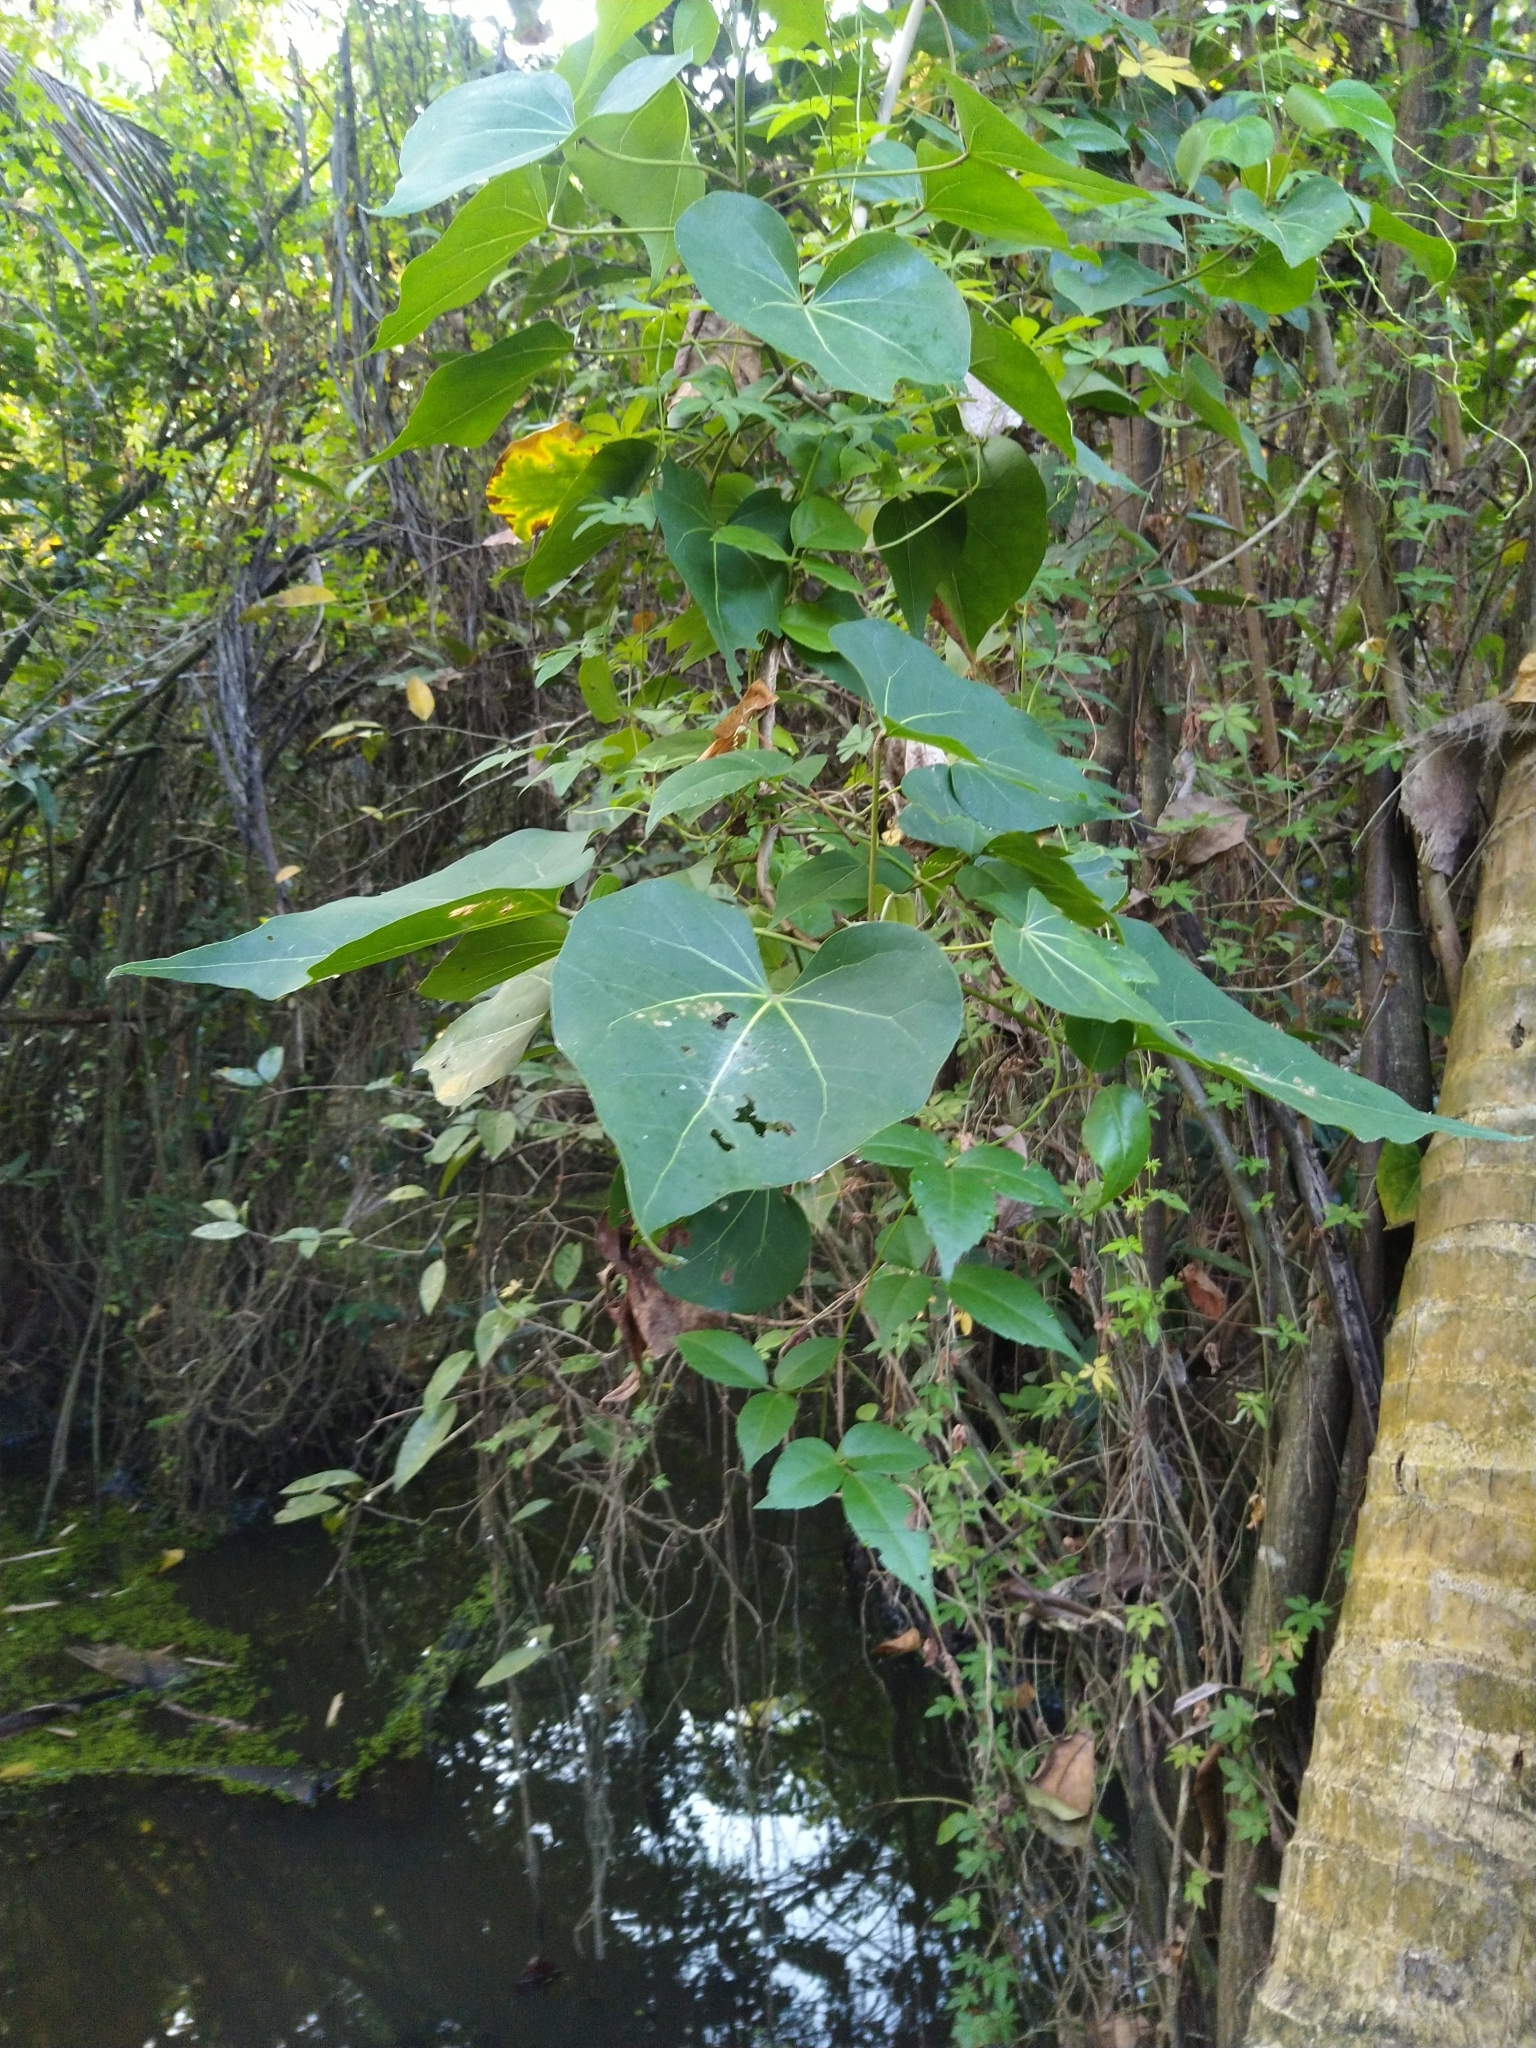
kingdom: Plantae
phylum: Tracheophyta
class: Magnoliopsida
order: Malvales
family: Malvaceae
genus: Thespesia
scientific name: Thespesia populnea
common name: Seaside mahoe
